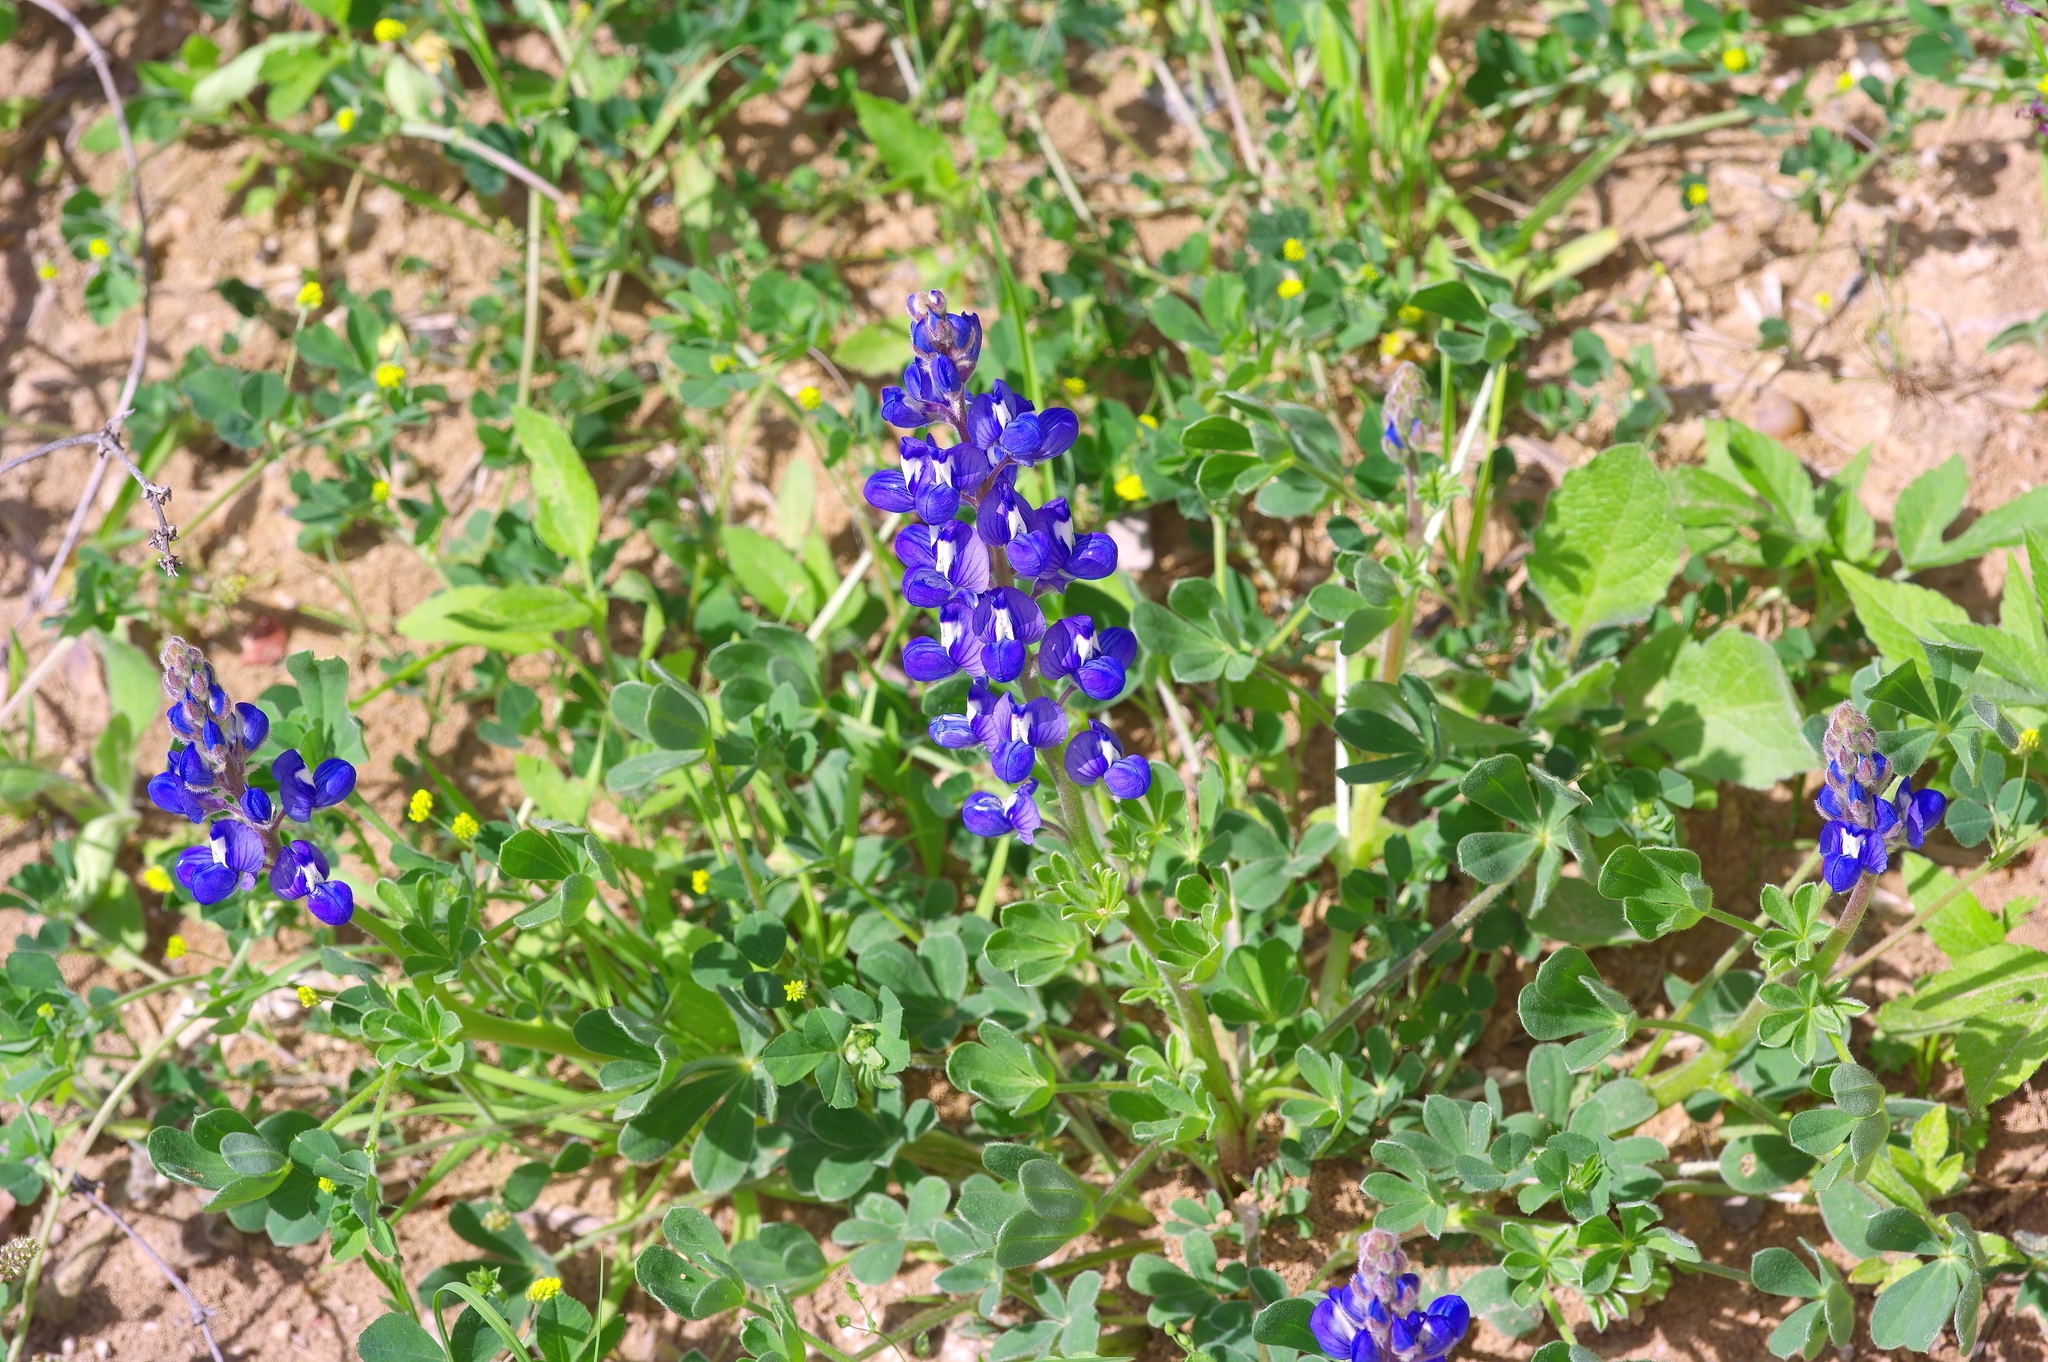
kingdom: Plantae
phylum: Tracheophyta
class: Magnoliopsida
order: Fabales
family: Fabaceae
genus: Lupinus
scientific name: Lupinus subcarnosus
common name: Texas bluebonnet
